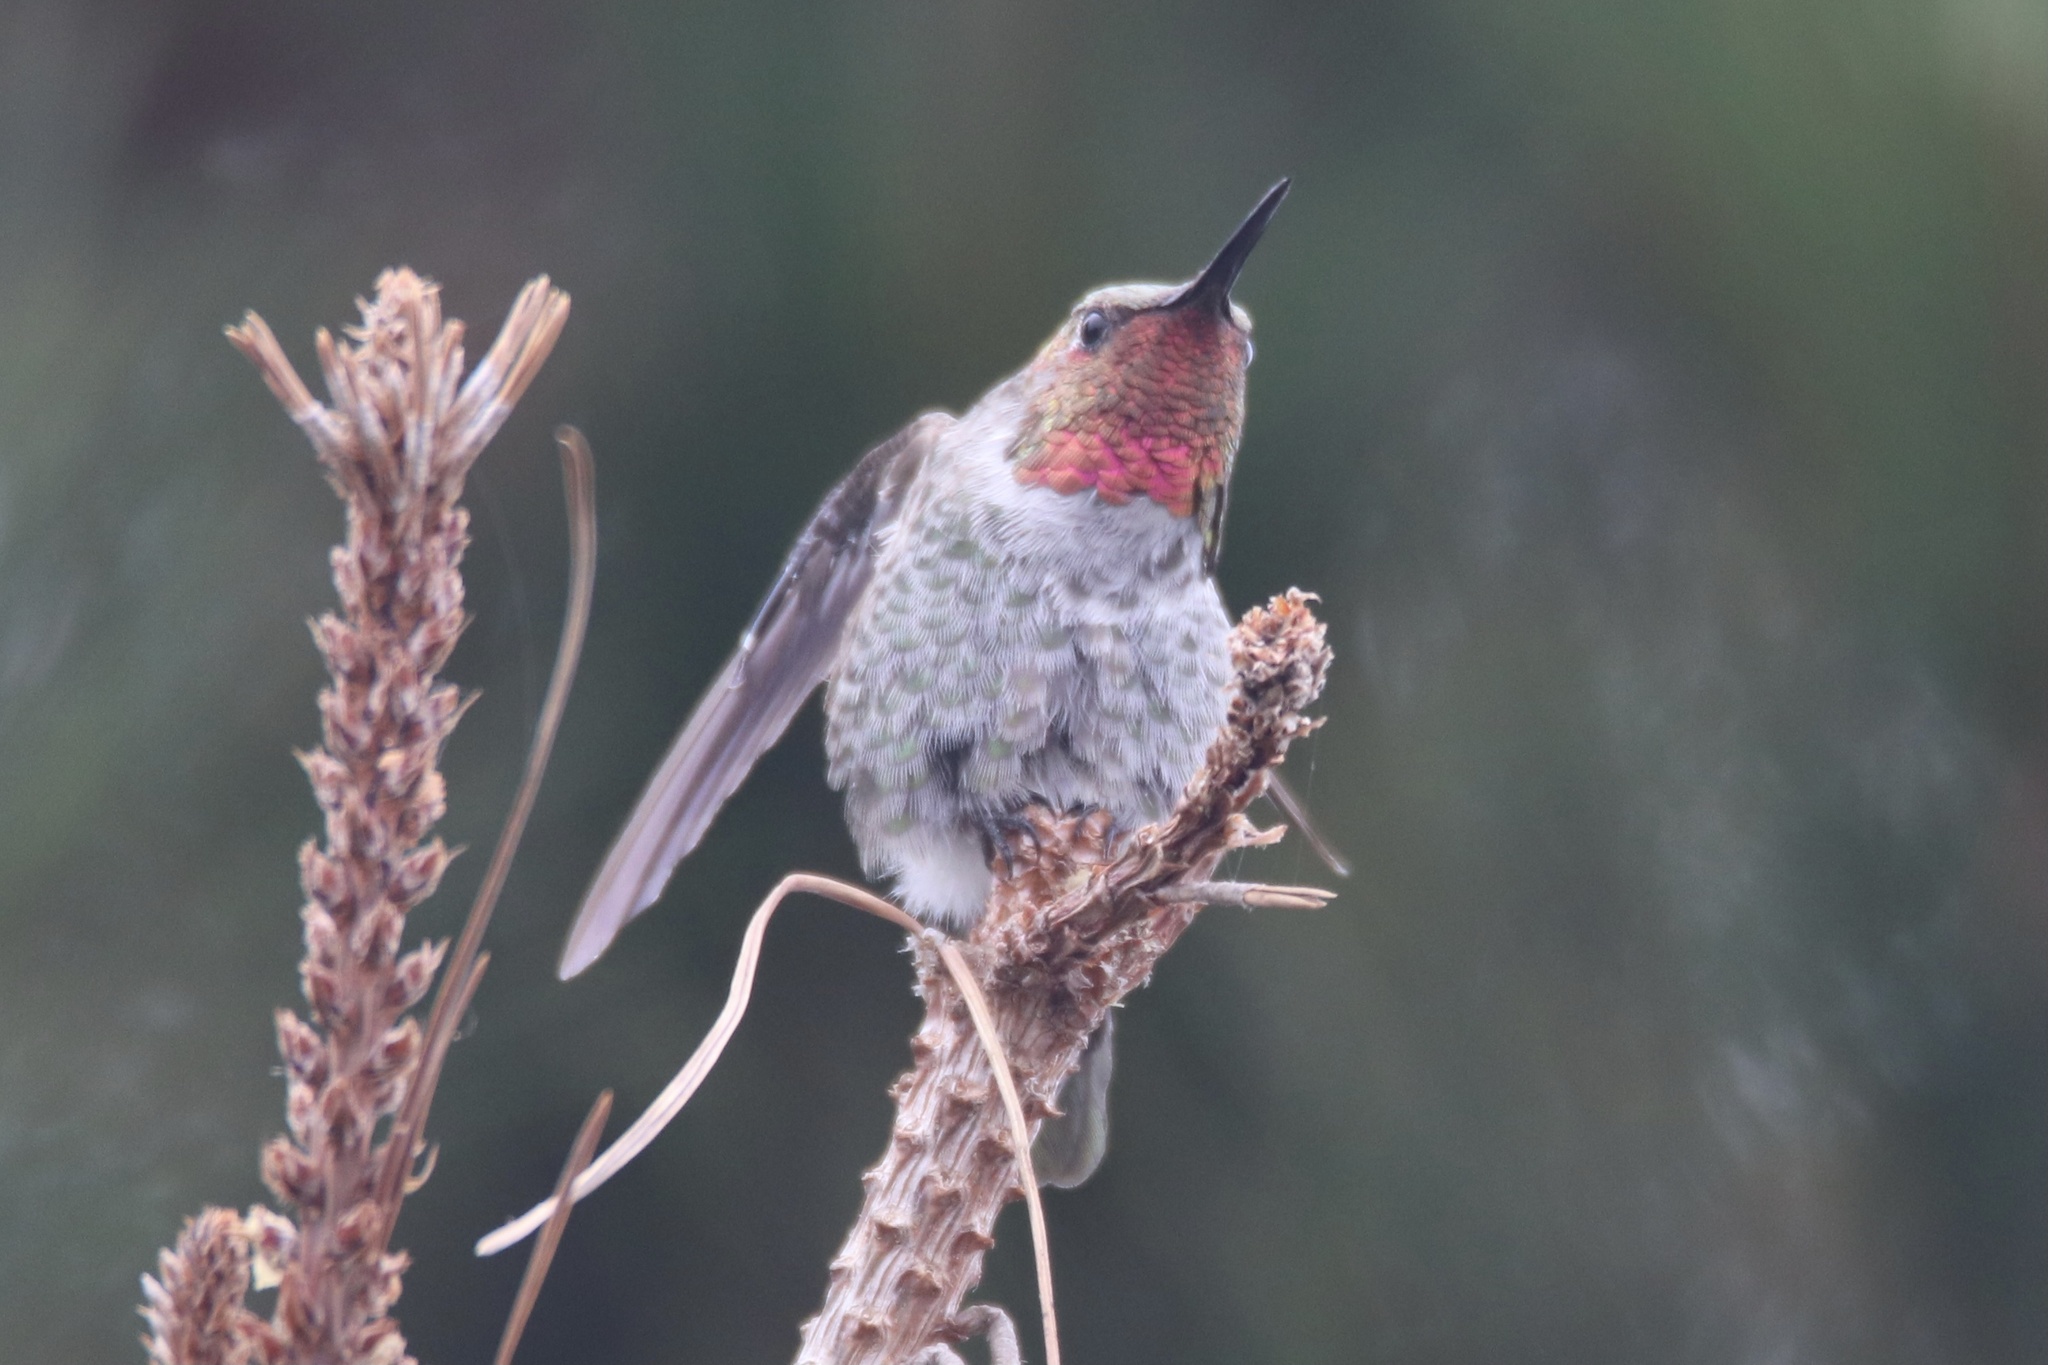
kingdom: Animalia
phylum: Chordata
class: Aves
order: Apodiformes
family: Trochilidae
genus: Calypte
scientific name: Calypte anna
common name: Anna's hummingbird
